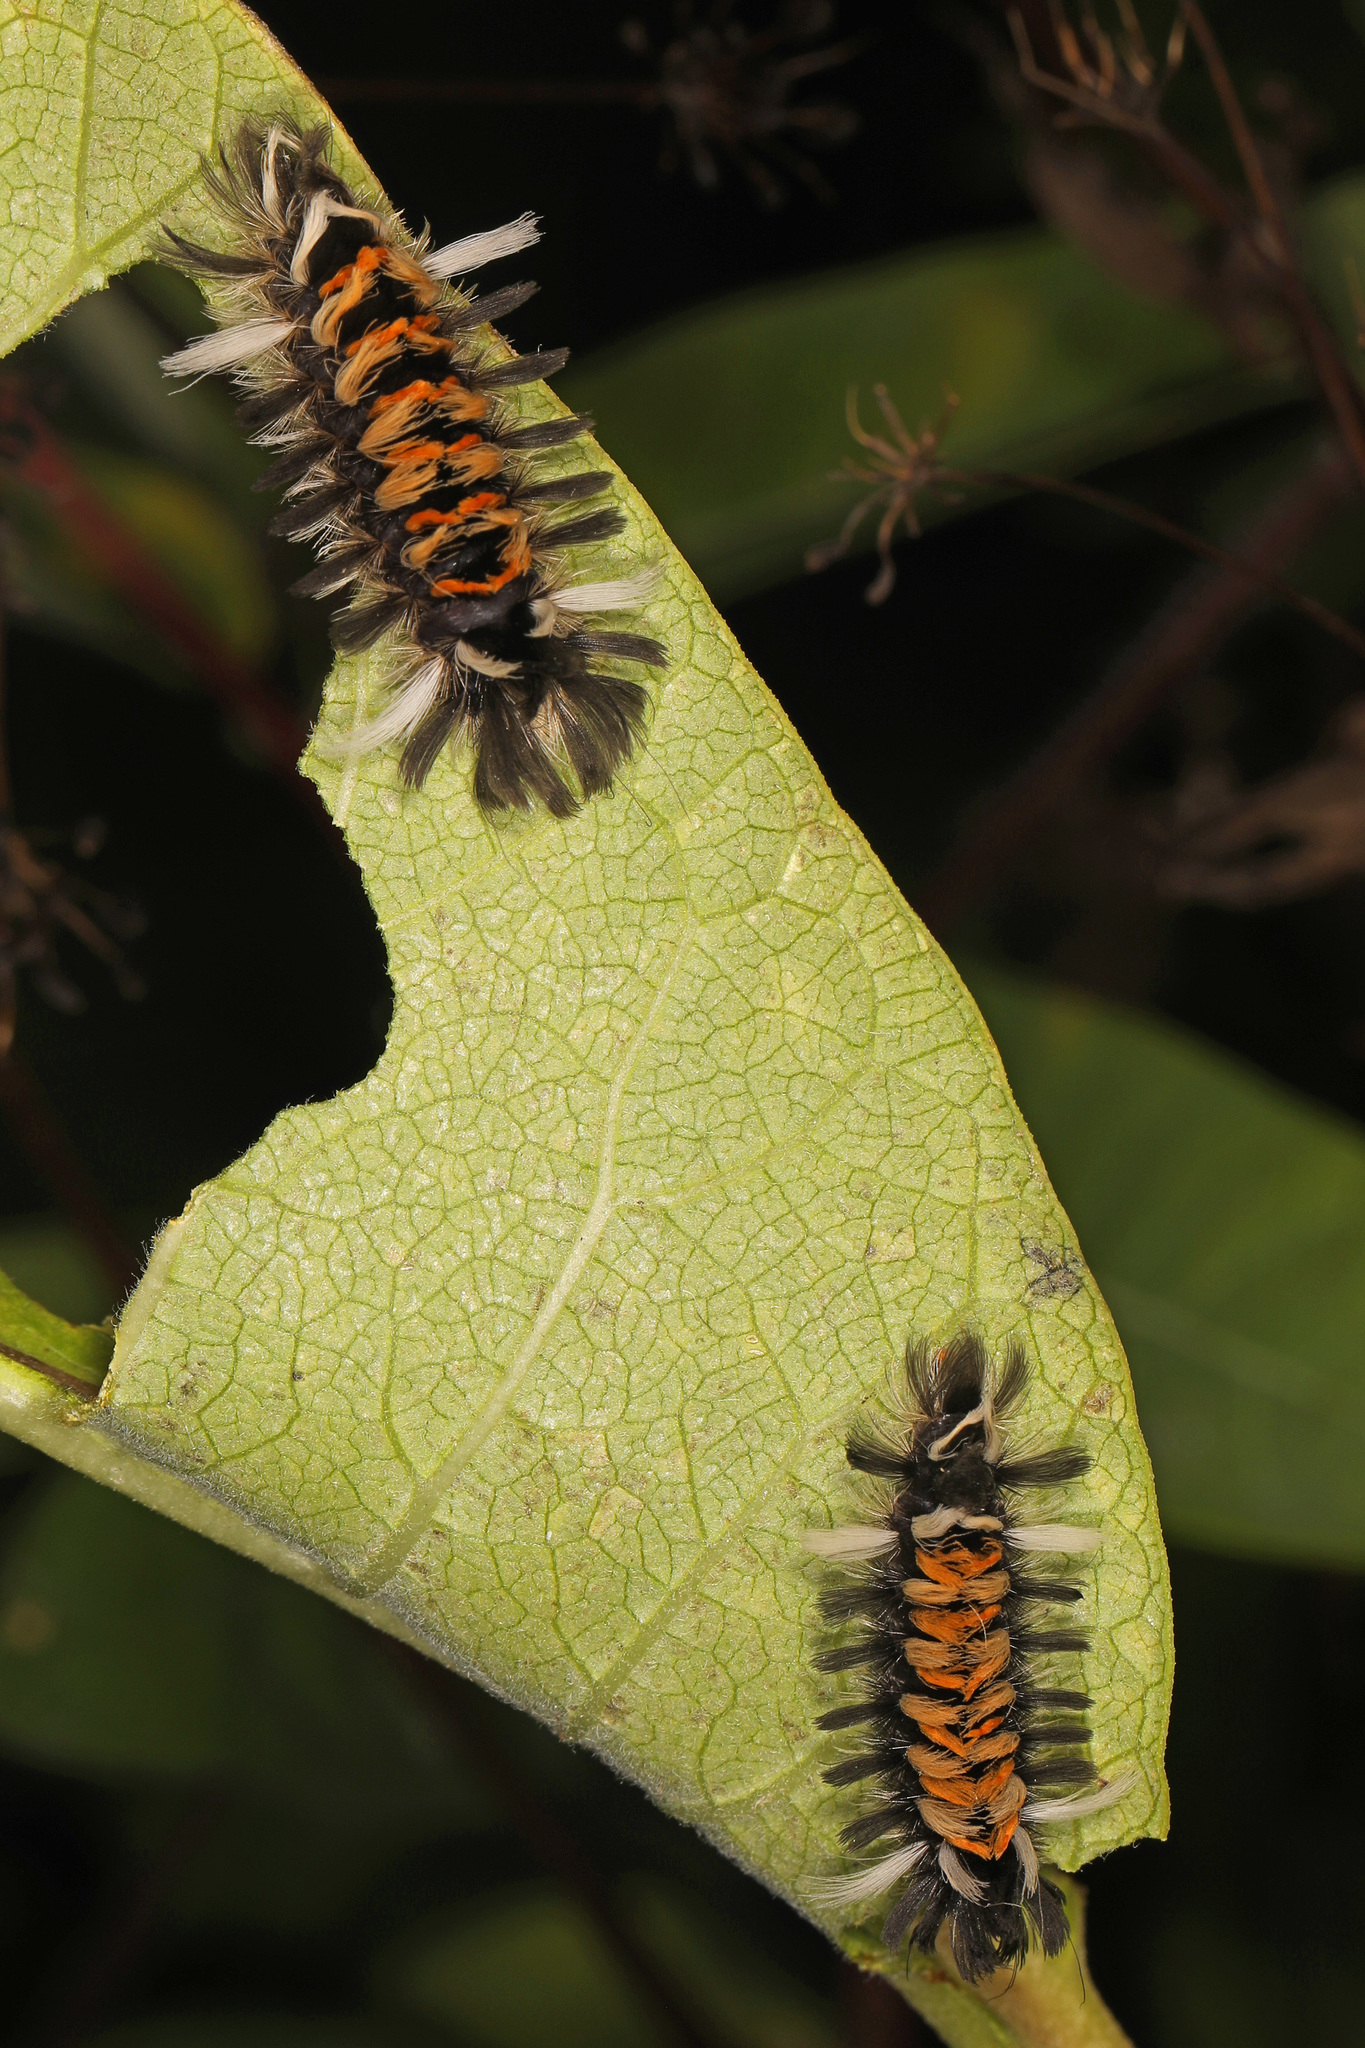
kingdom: Animalia
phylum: Arthropoda
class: Insecta
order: Lepidoptera
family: Erebidae
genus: Euchaetes
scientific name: Euchaetes egle
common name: Milkweed tussock moth
